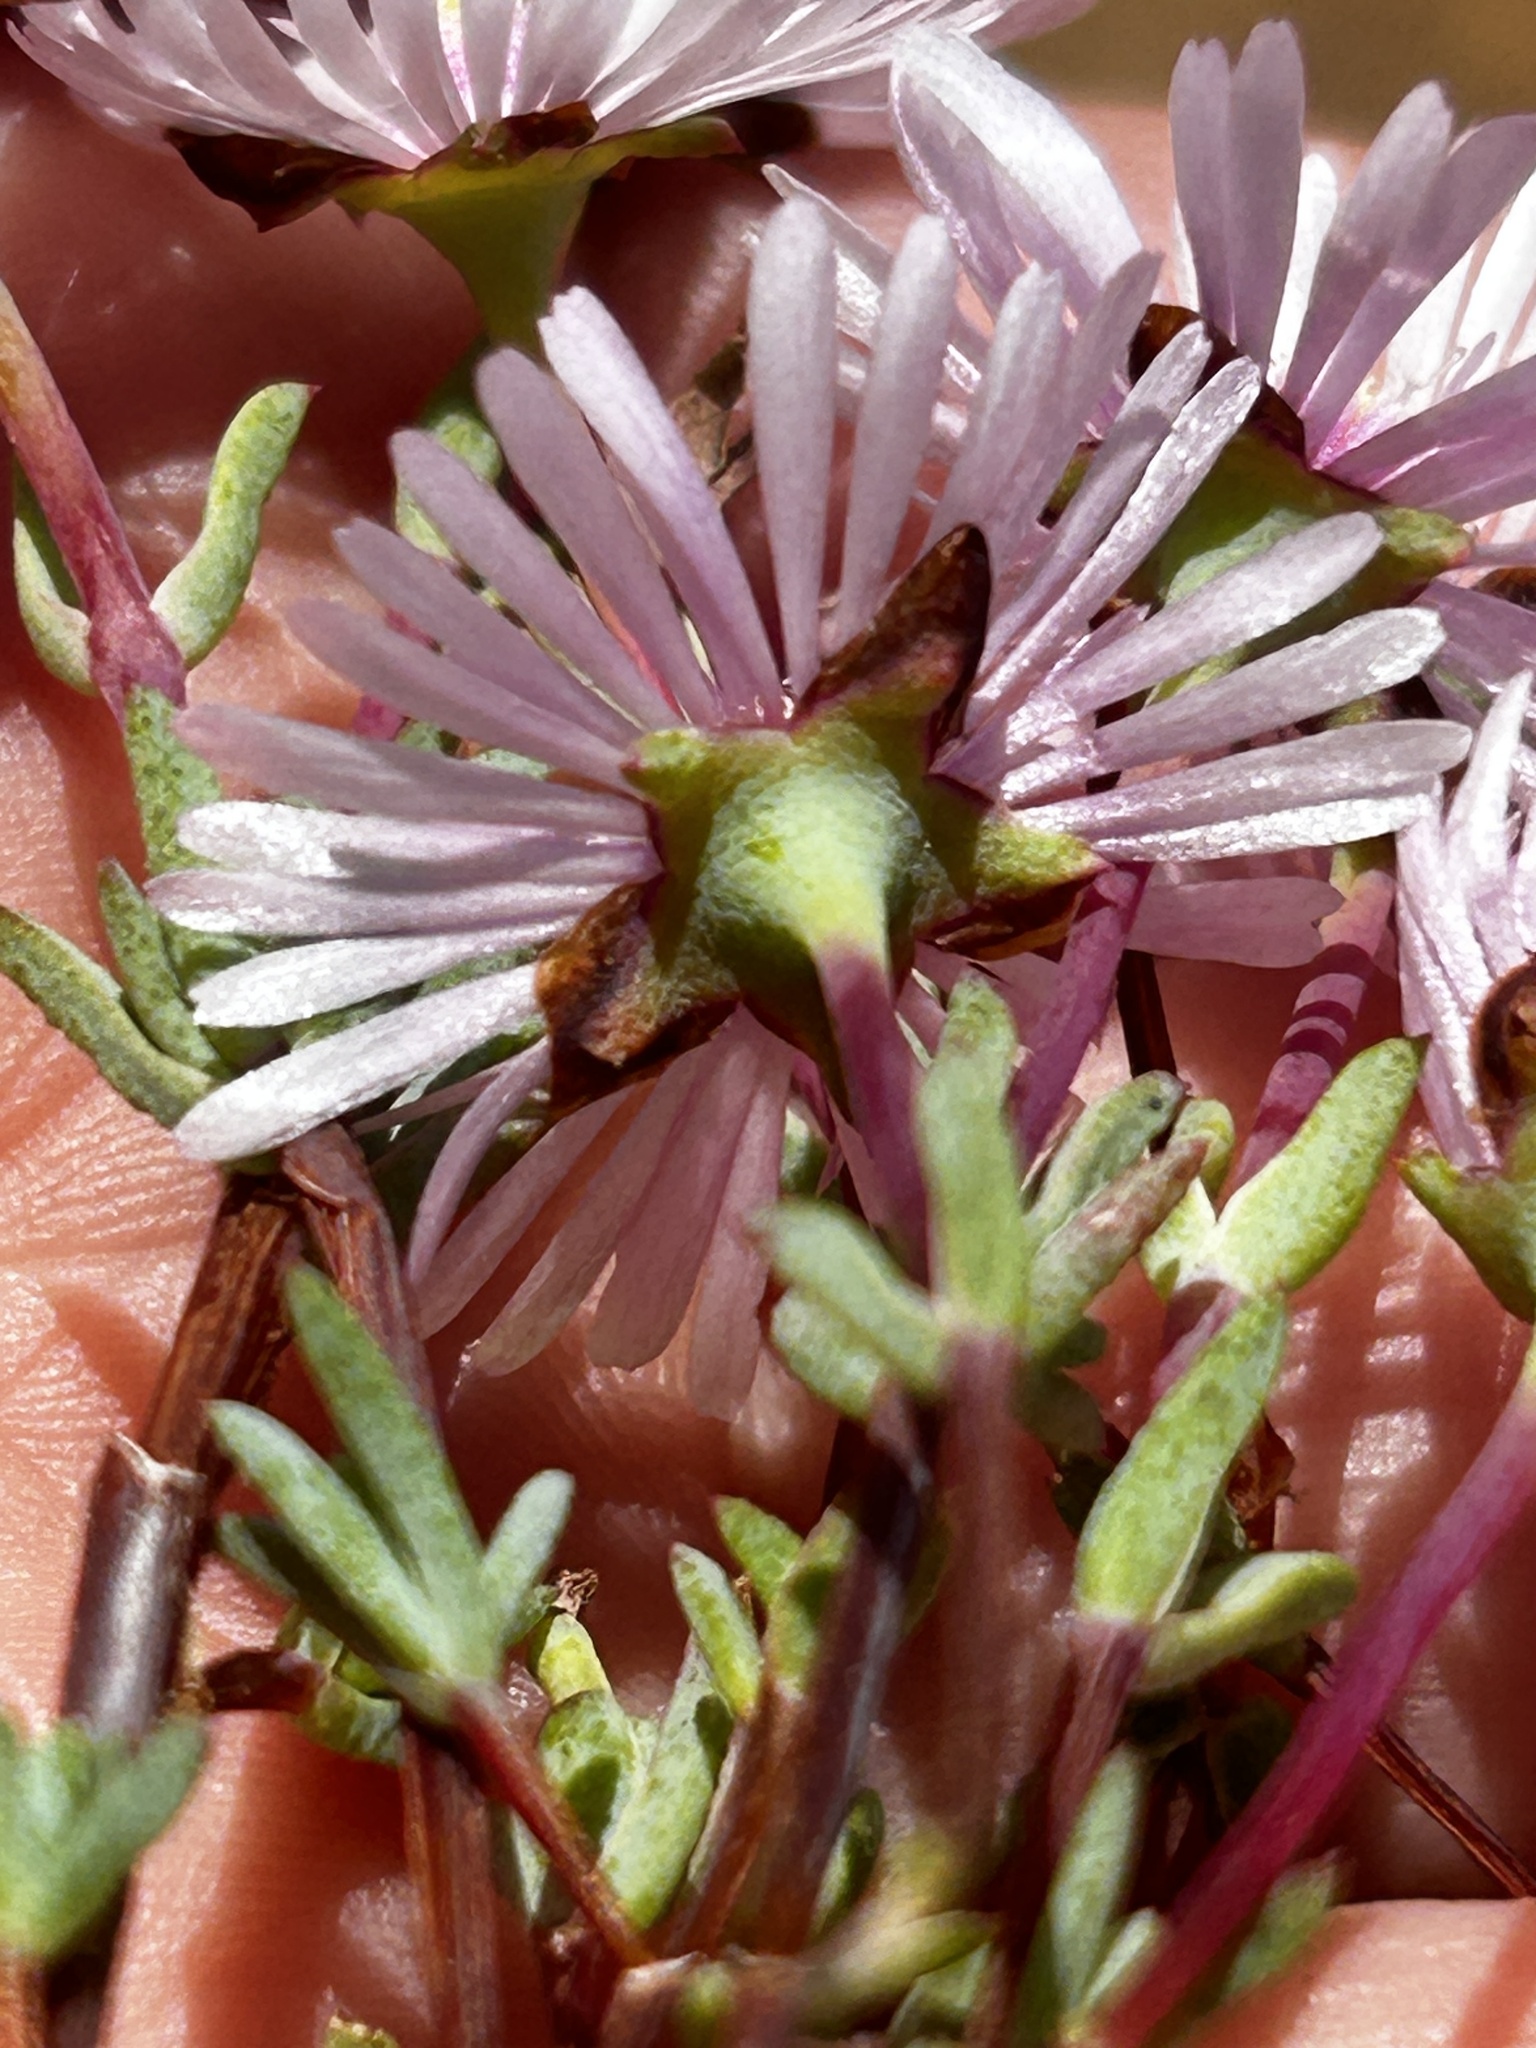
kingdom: Plantae
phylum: Tracheophyta
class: Magnoliopsida
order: Caryophyllales
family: Aizoaceae
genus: Lampranthus
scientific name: Lampranthus elegans
